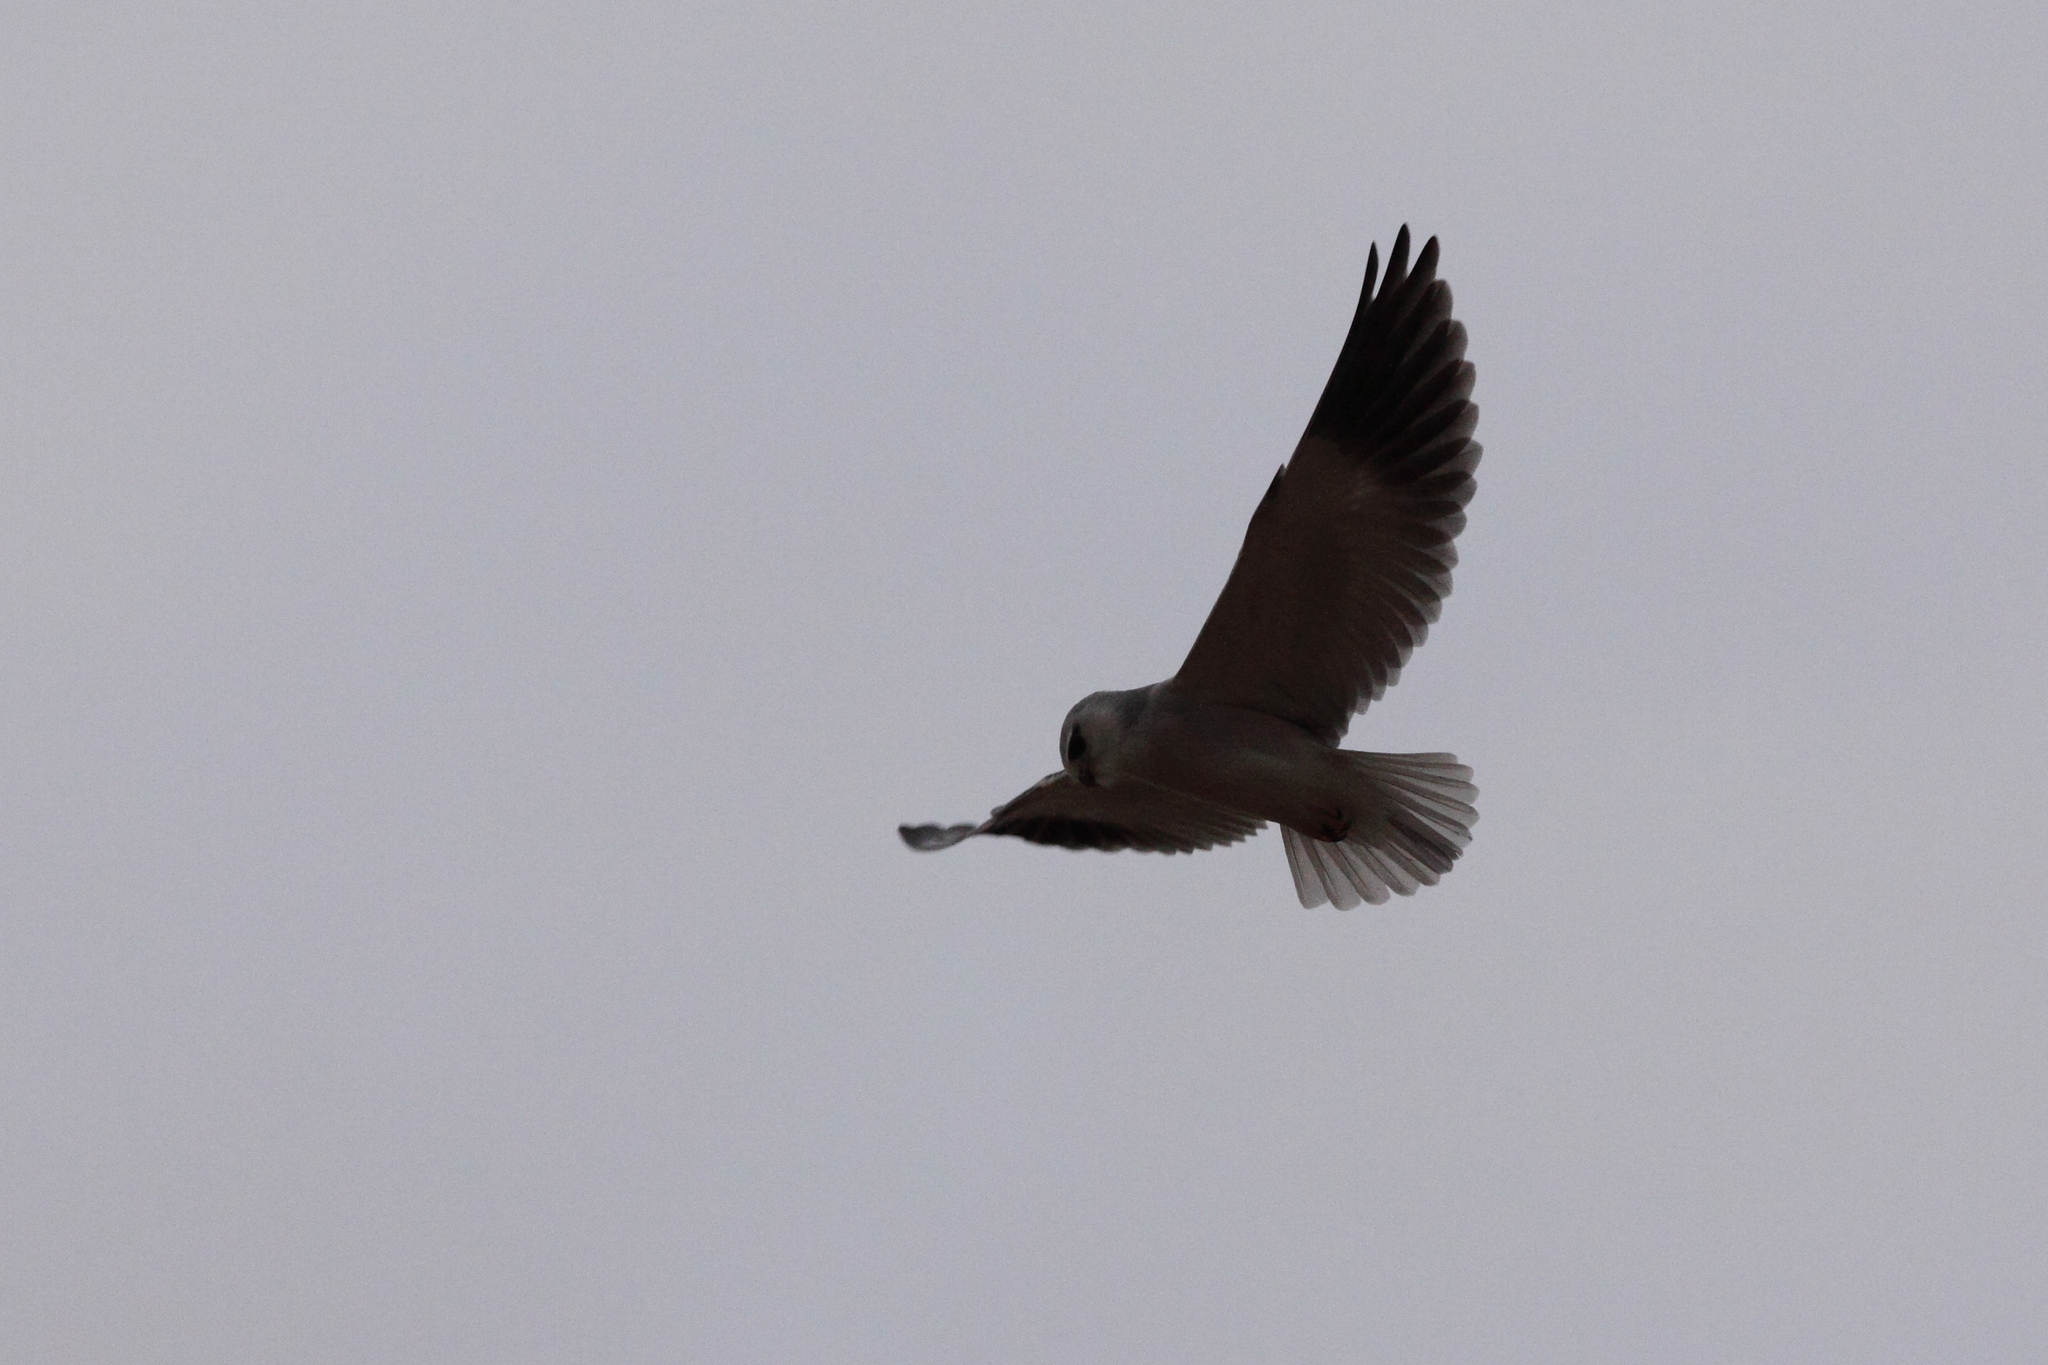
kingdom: Animalia
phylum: Chordata
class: Aves
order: Accipitriformes
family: Accipitridae
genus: Elanus
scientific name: Elanus caeruleus
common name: Black-winged kite
